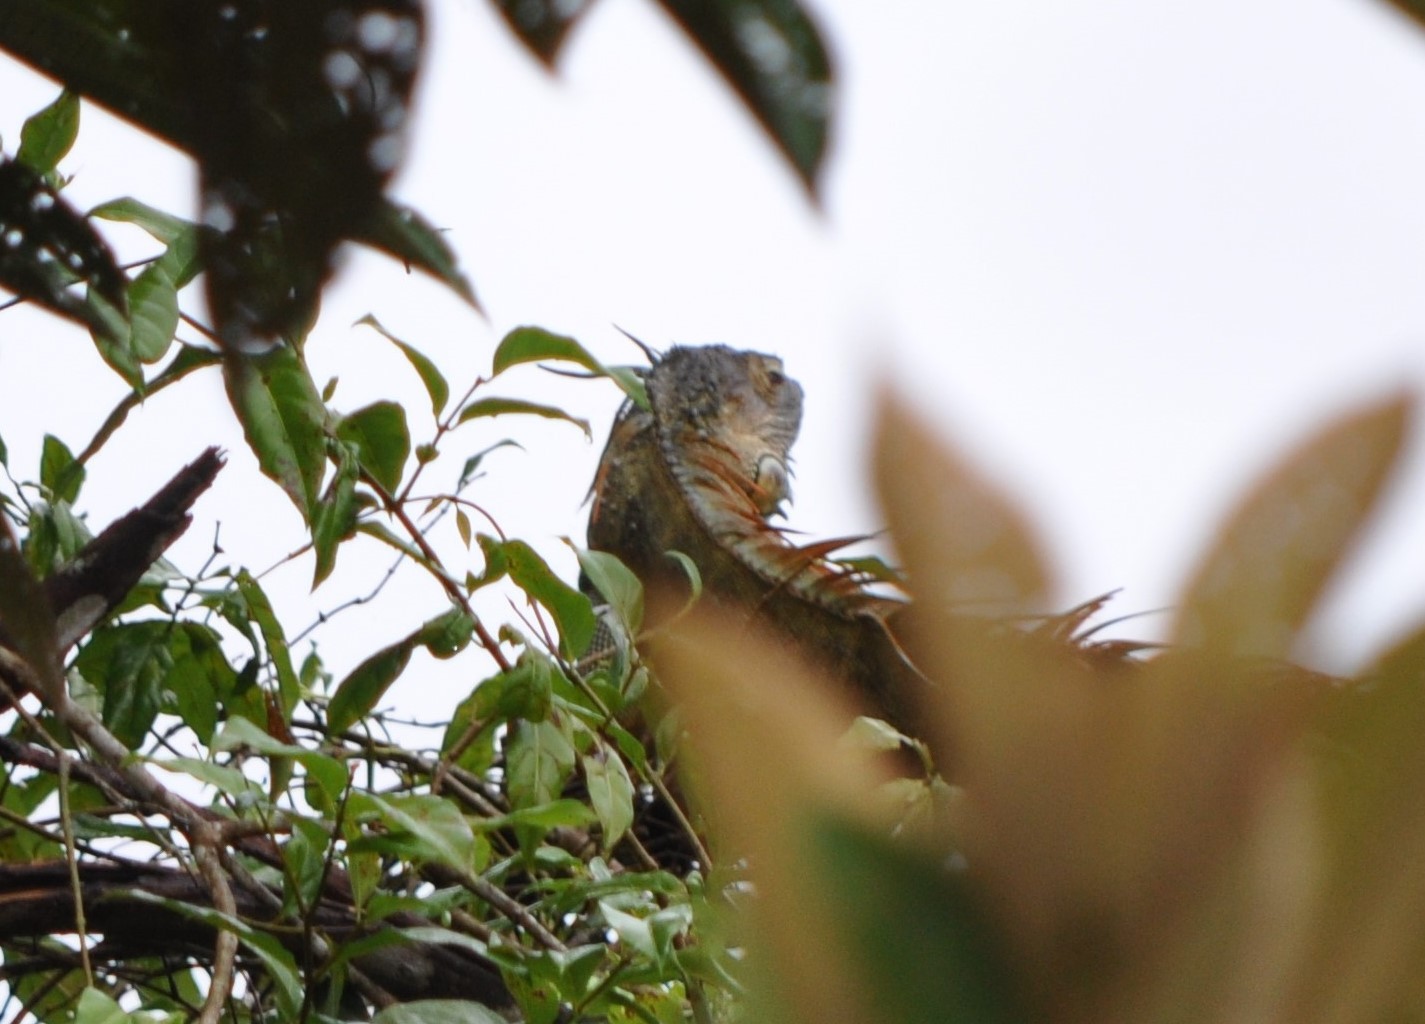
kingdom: Animalia
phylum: Chordata
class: Squamata
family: Iguanidae
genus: Iguana
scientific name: Iguana iguana
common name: Green iguana
